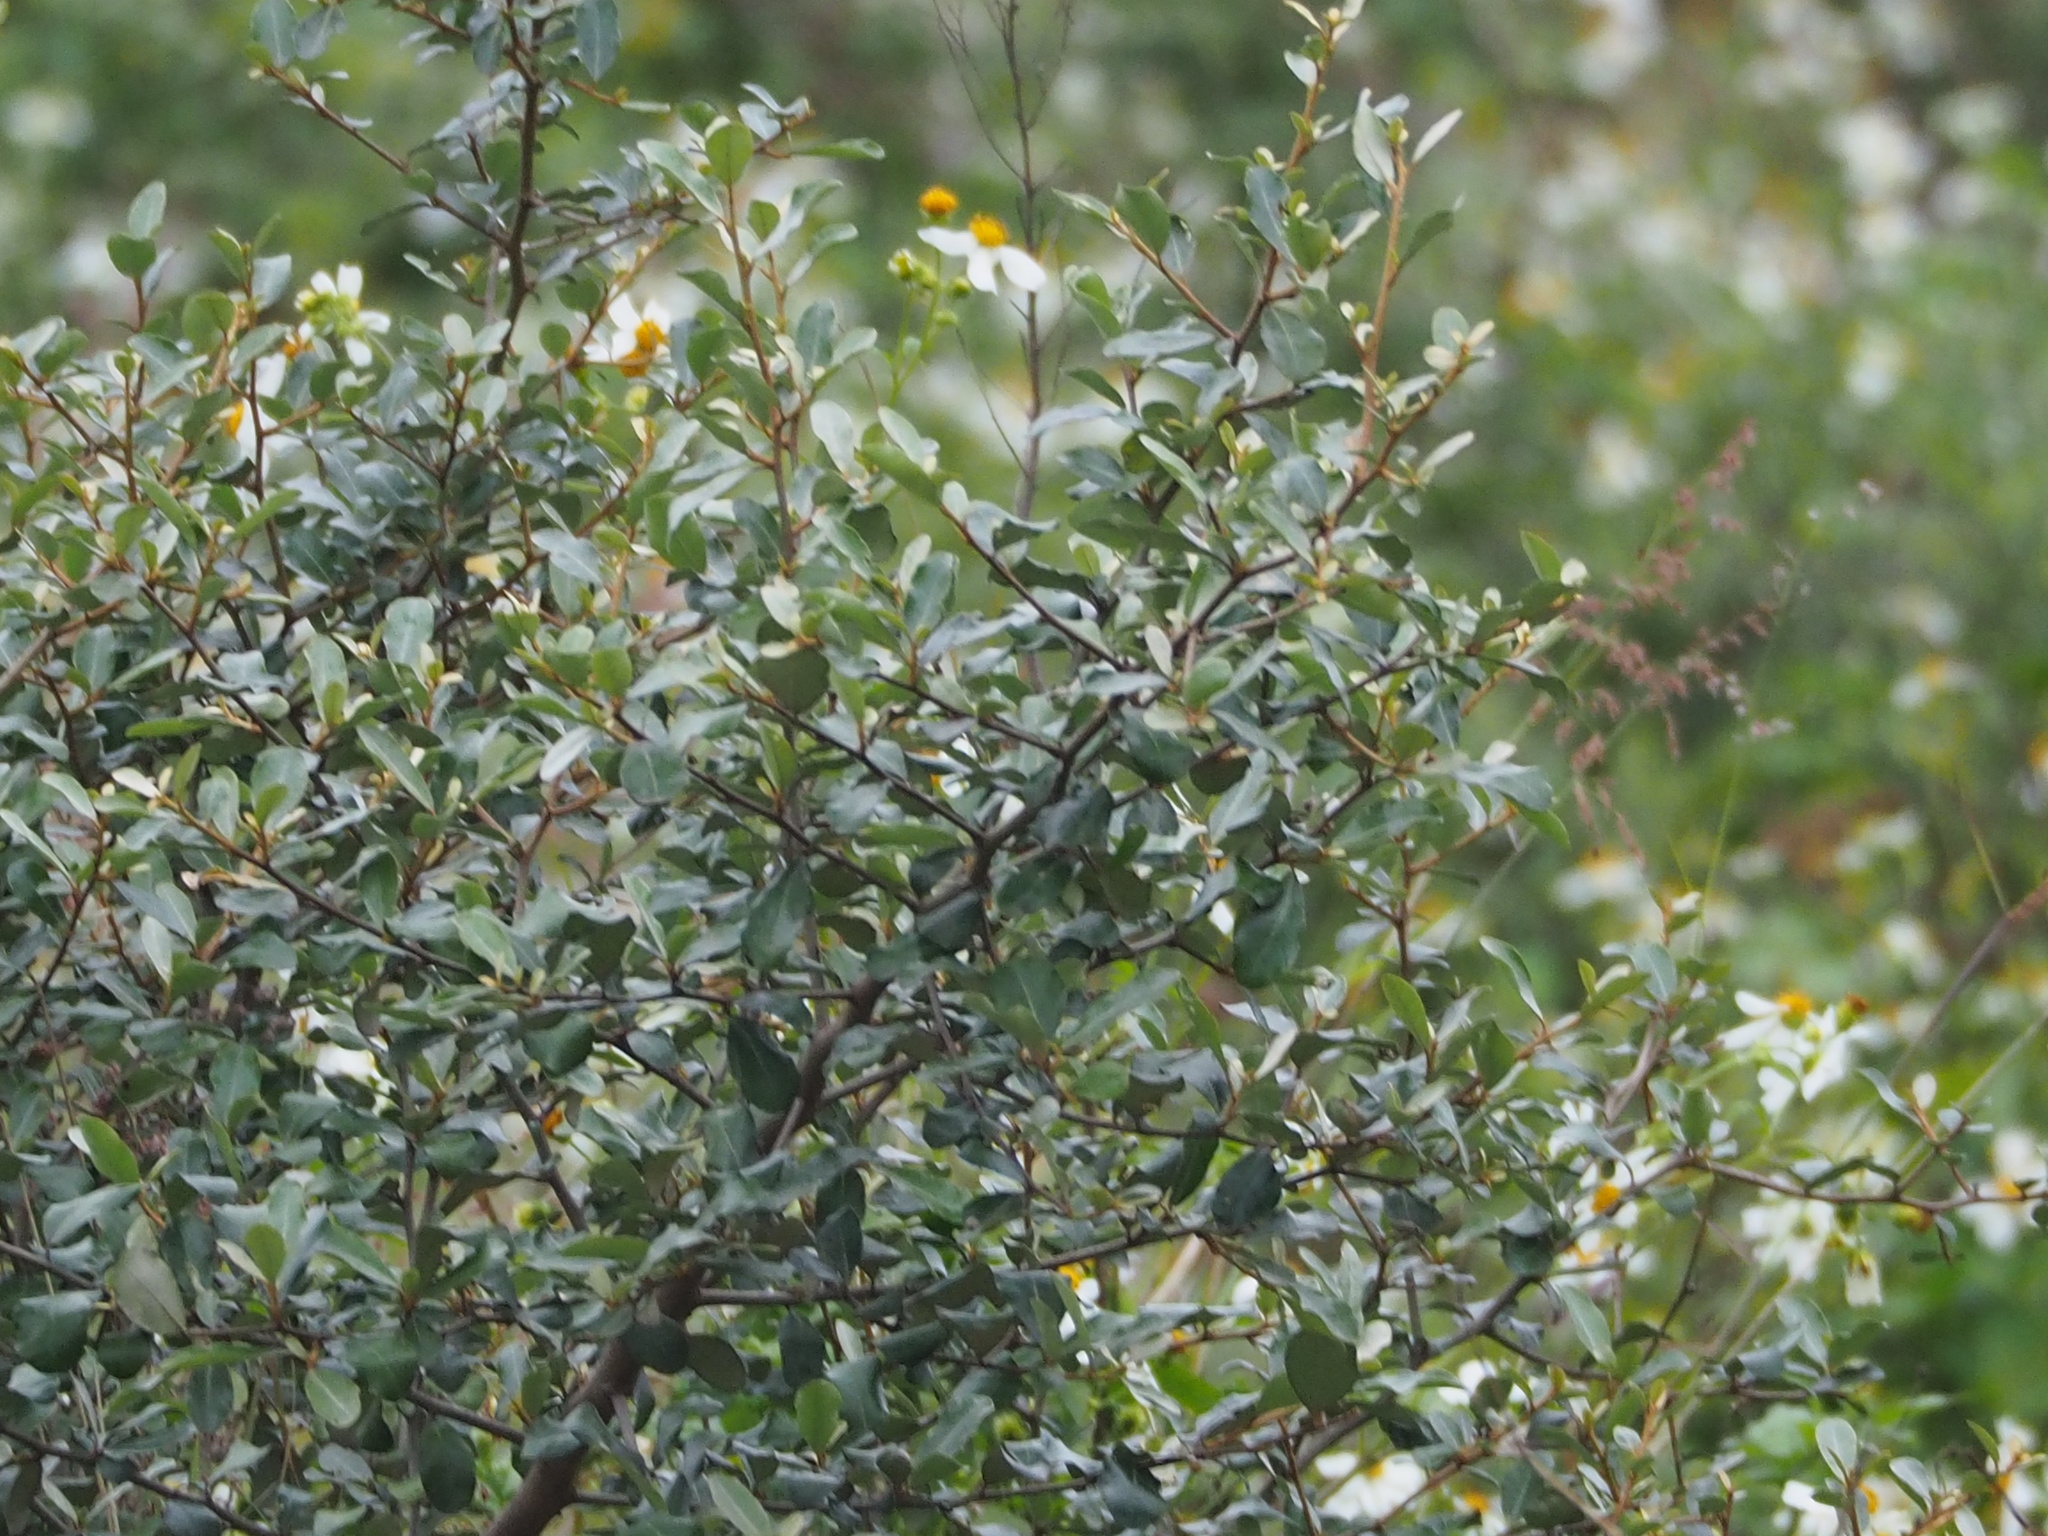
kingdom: Plantae
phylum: Tracheophyta
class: Magnoliopsida
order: Rosales
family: Elaeagnaceae
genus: Elaeagnus
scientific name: Elaeagnus oldhamii
